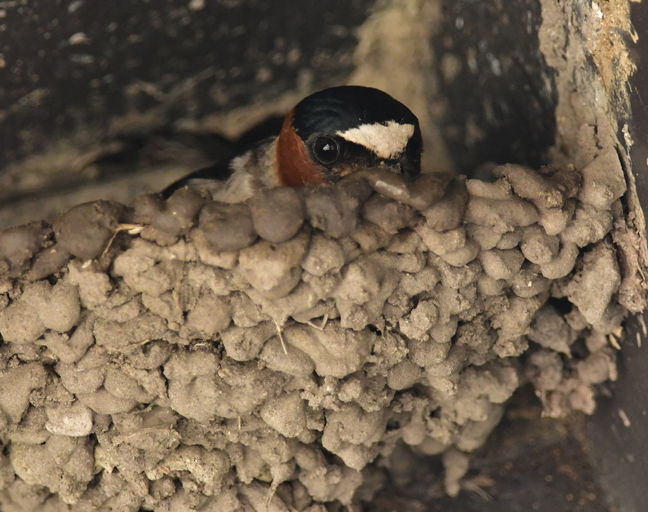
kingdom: Animalia
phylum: Chordata
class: Aves
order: Passeriformes
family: Hirundinidae
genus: Petrochelidon
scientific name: Petrochelidon pyrrhonota
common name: American cliff swallow
